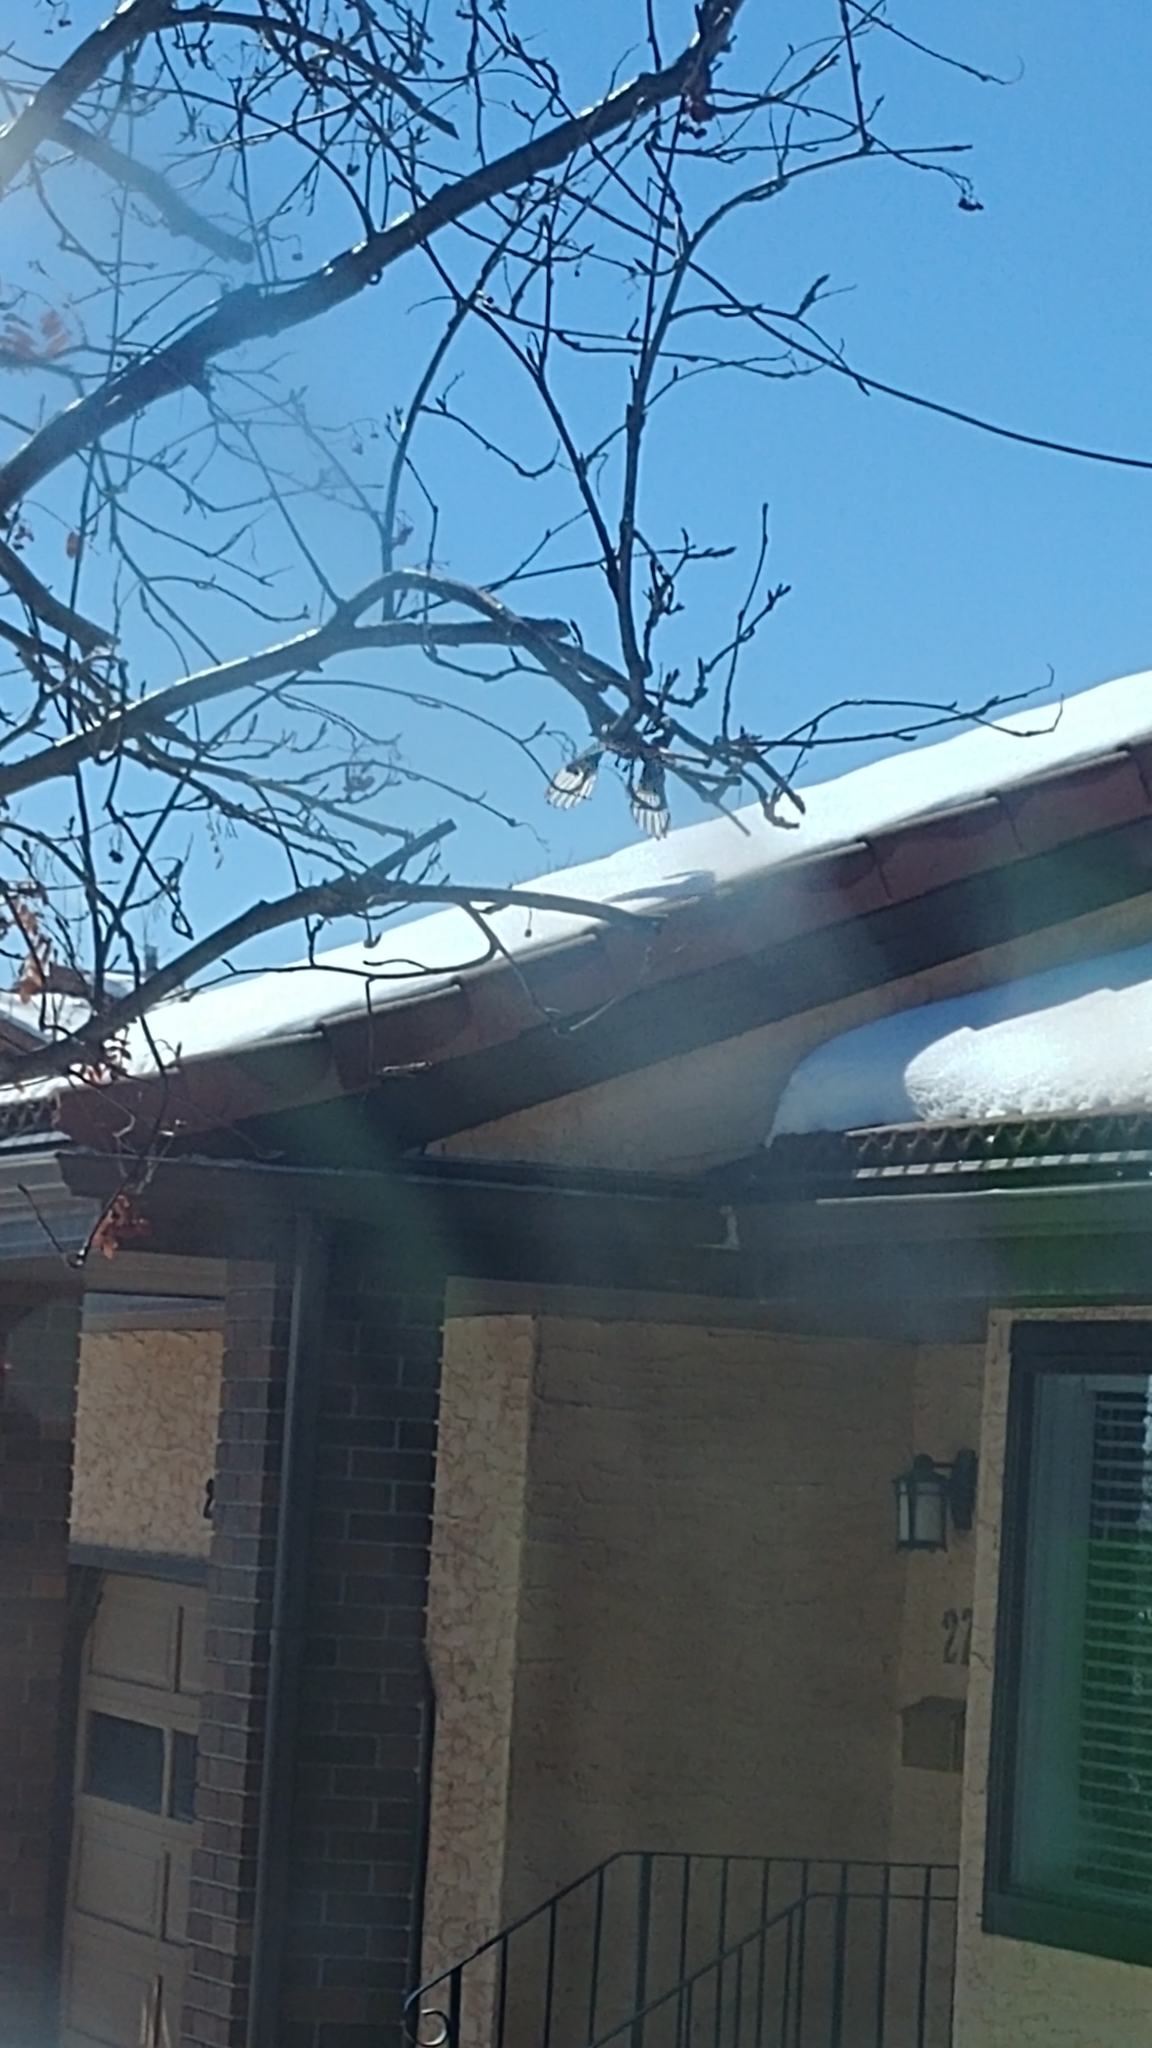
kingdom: Animalia
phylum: Chordata
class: Aves
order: Passeriformes
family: Corvidae
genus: Pica
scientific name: Pica hudsonia
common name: Black-billed magpie
